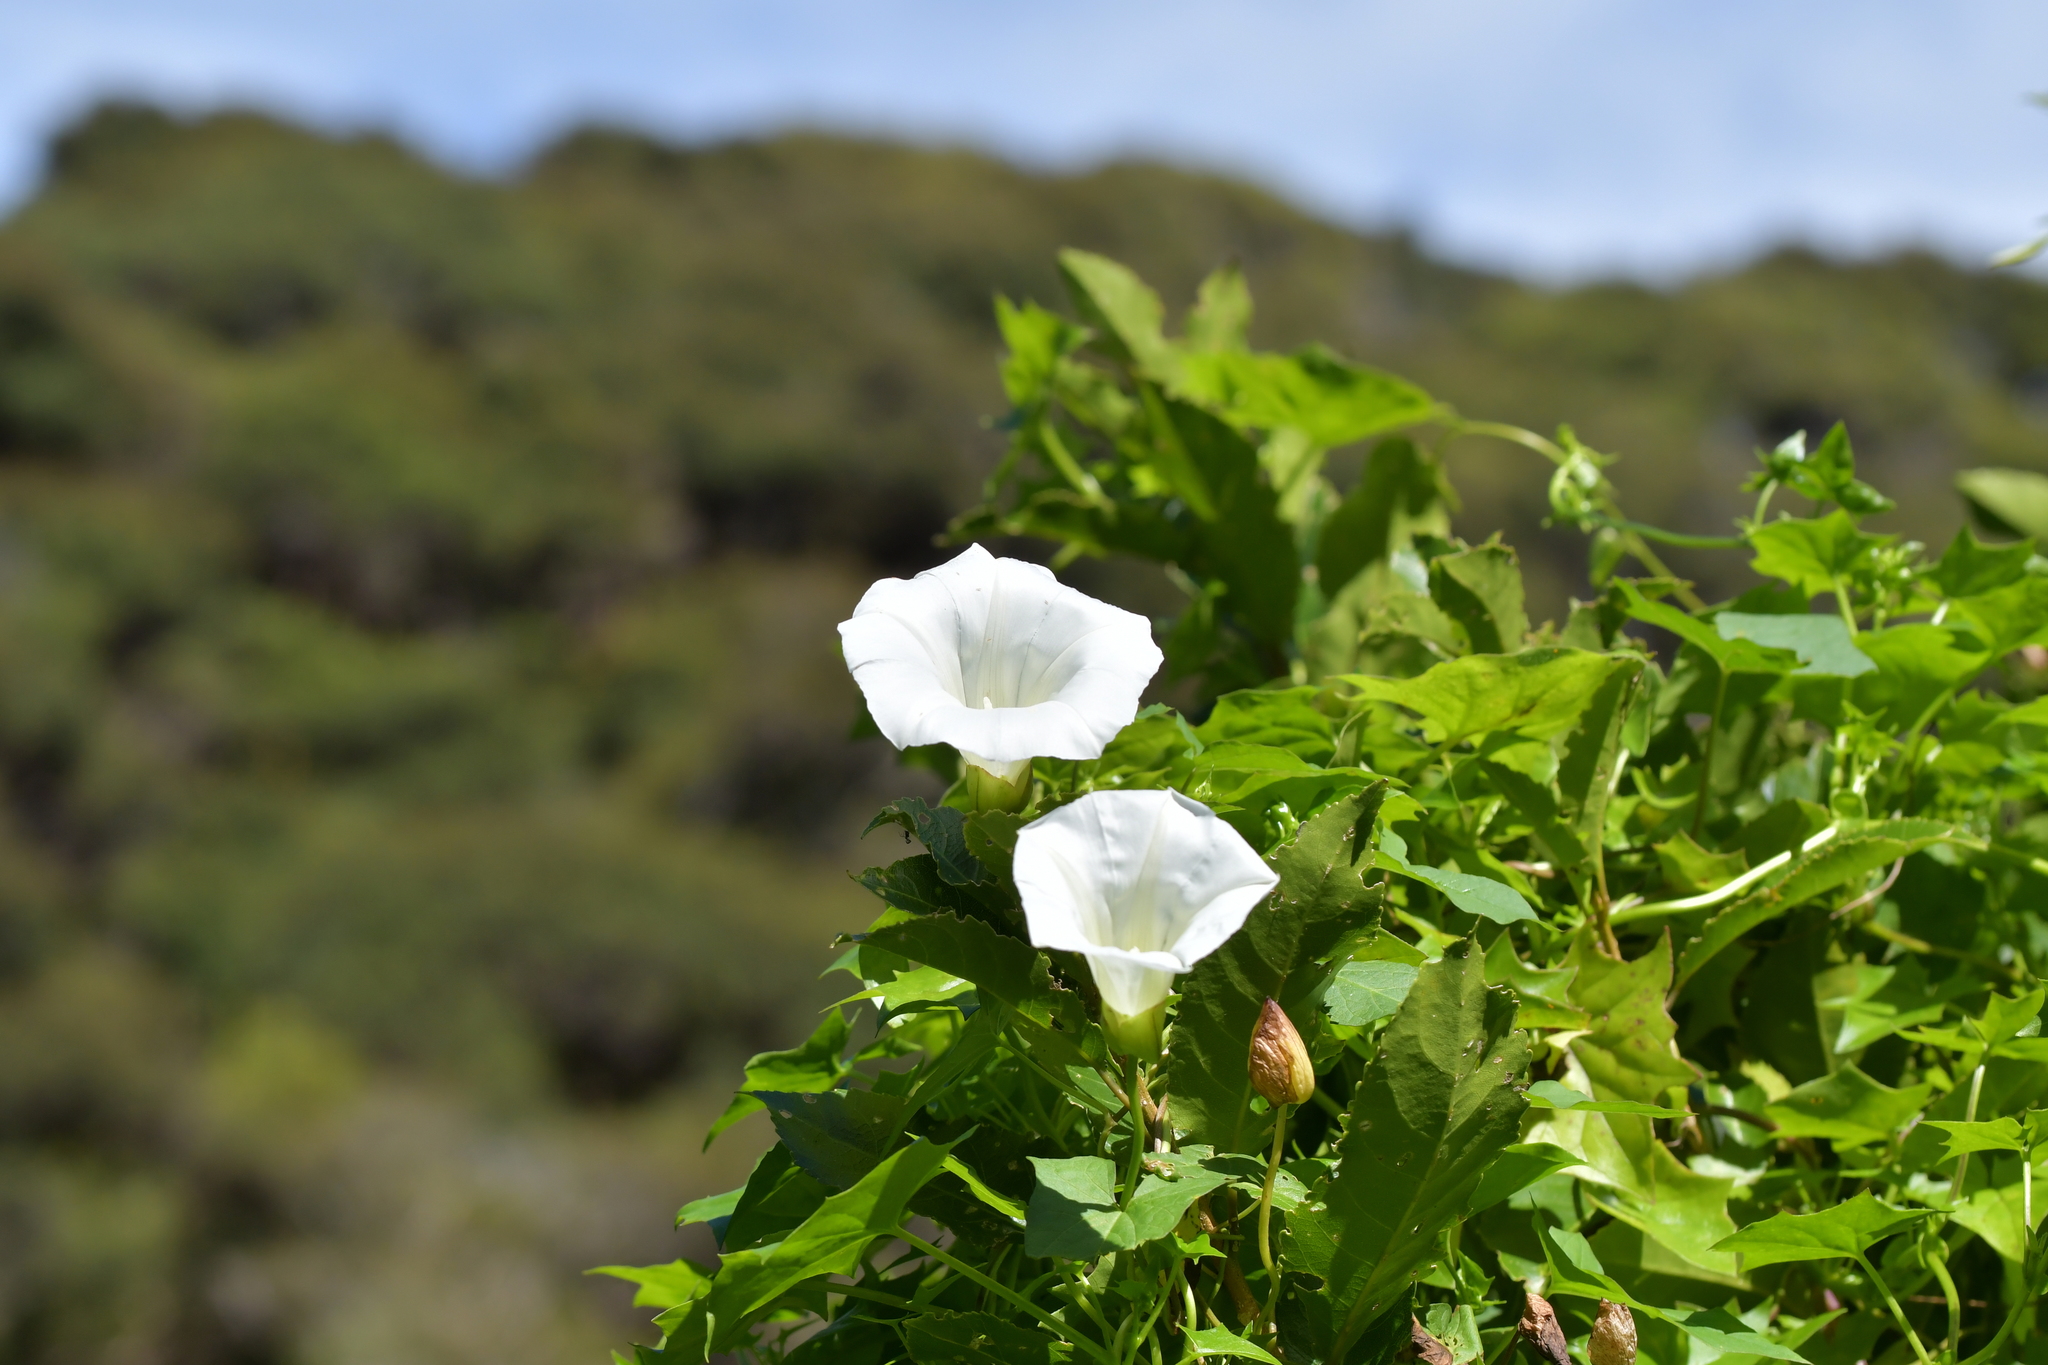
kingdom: Plantae
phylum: Tracheophyta
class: Magnoliopsida
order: Solanales
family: Convolvulaceae
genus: Calystegia
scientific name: Calystegia silvatica
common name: Large bindweed
